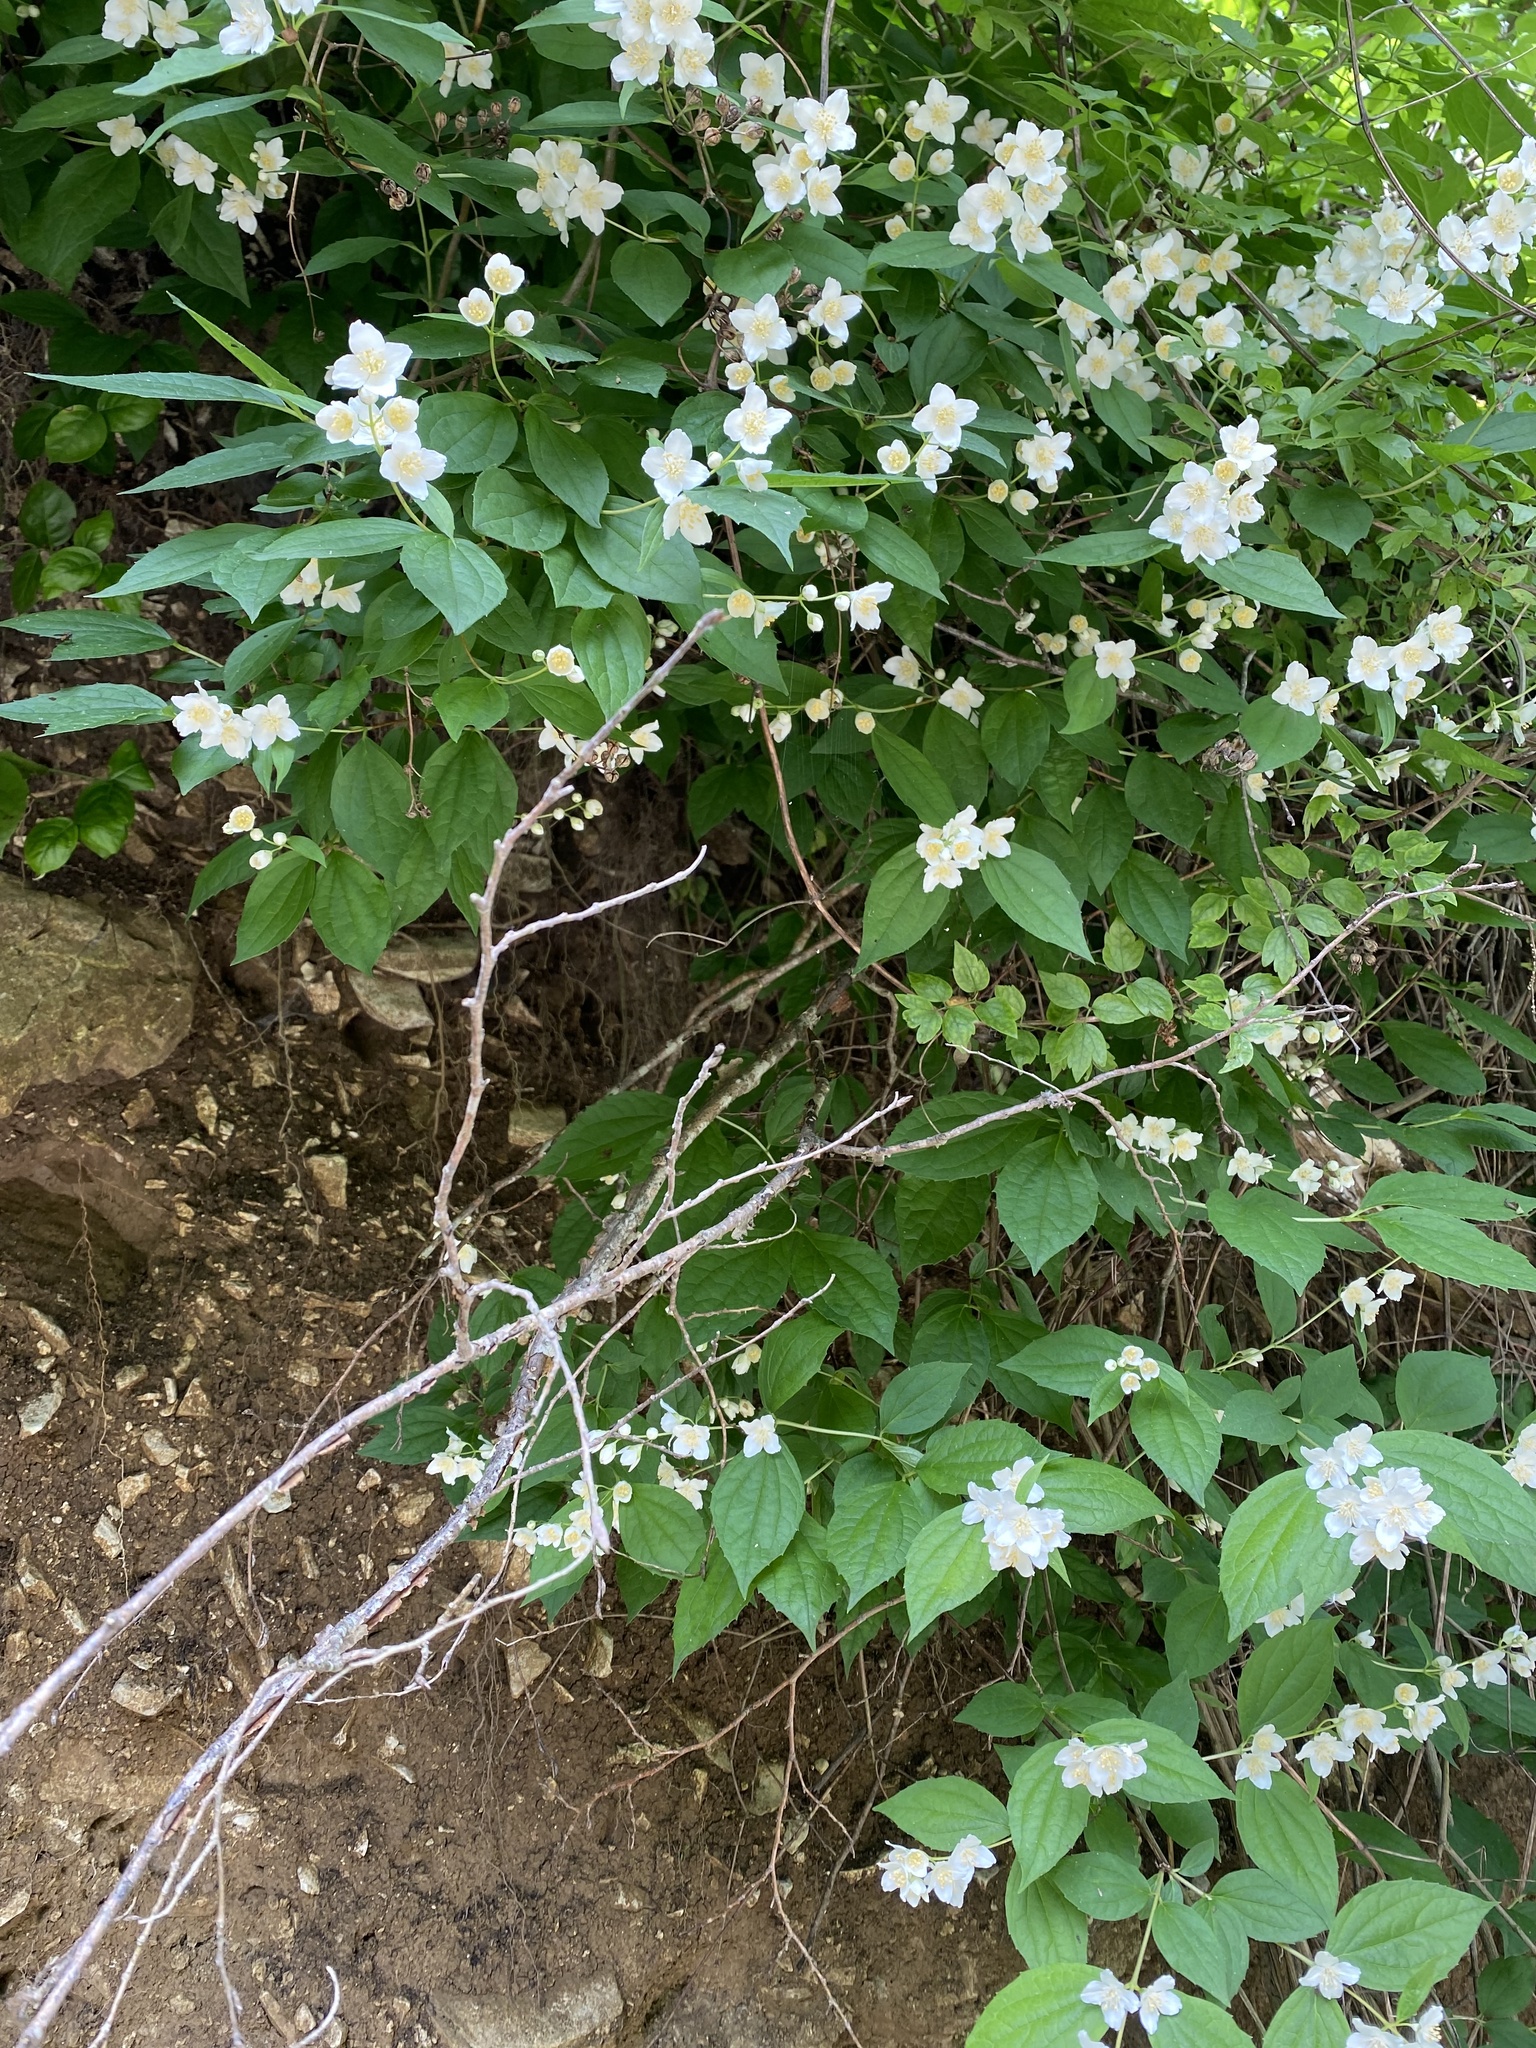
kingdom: Plantae
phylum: Tracheophyta
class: Magnoliopsida
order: Cornales
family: Hydrangeaceae
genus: Philadelphus
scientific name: Philadelphus coronarius
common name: Mock orange
